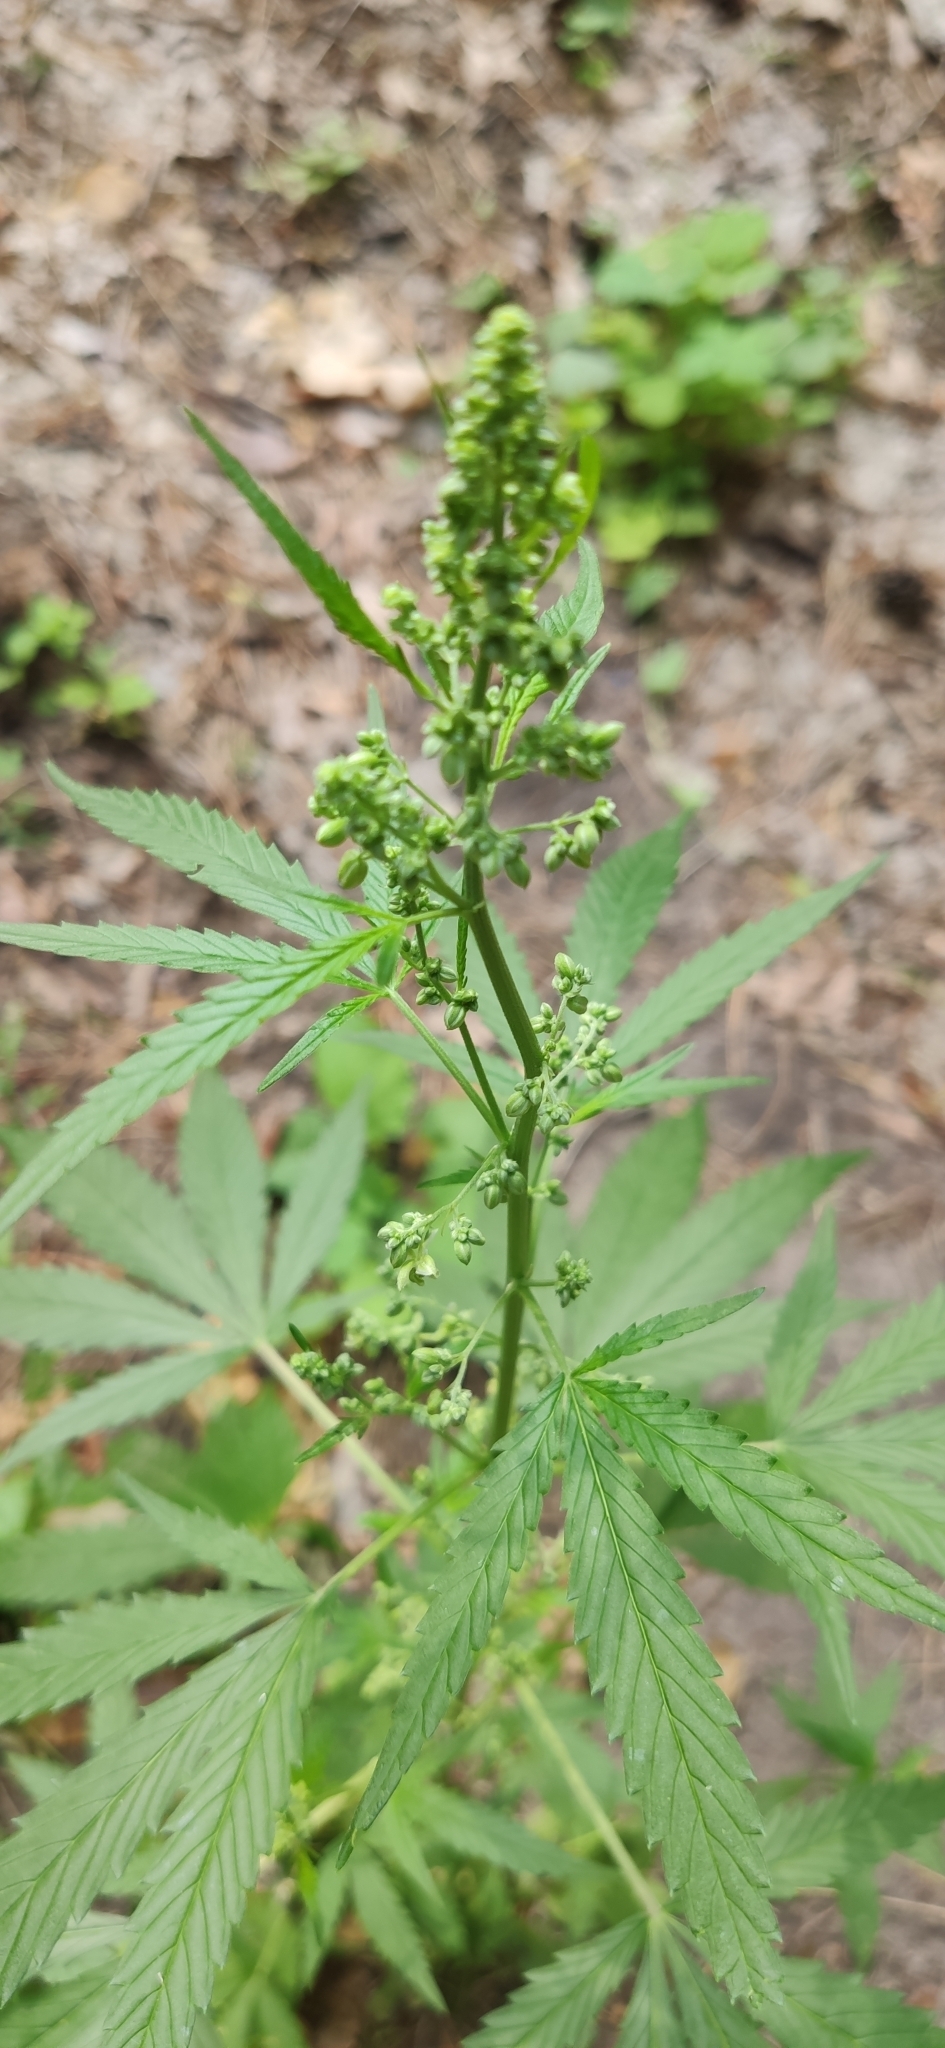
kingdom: Plantae
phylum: Tracheophyta
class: Magnoliopsida
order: Rosales
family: Cannabaceae
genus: Cannabis
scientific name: Cannabis sativa
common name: Hemp
